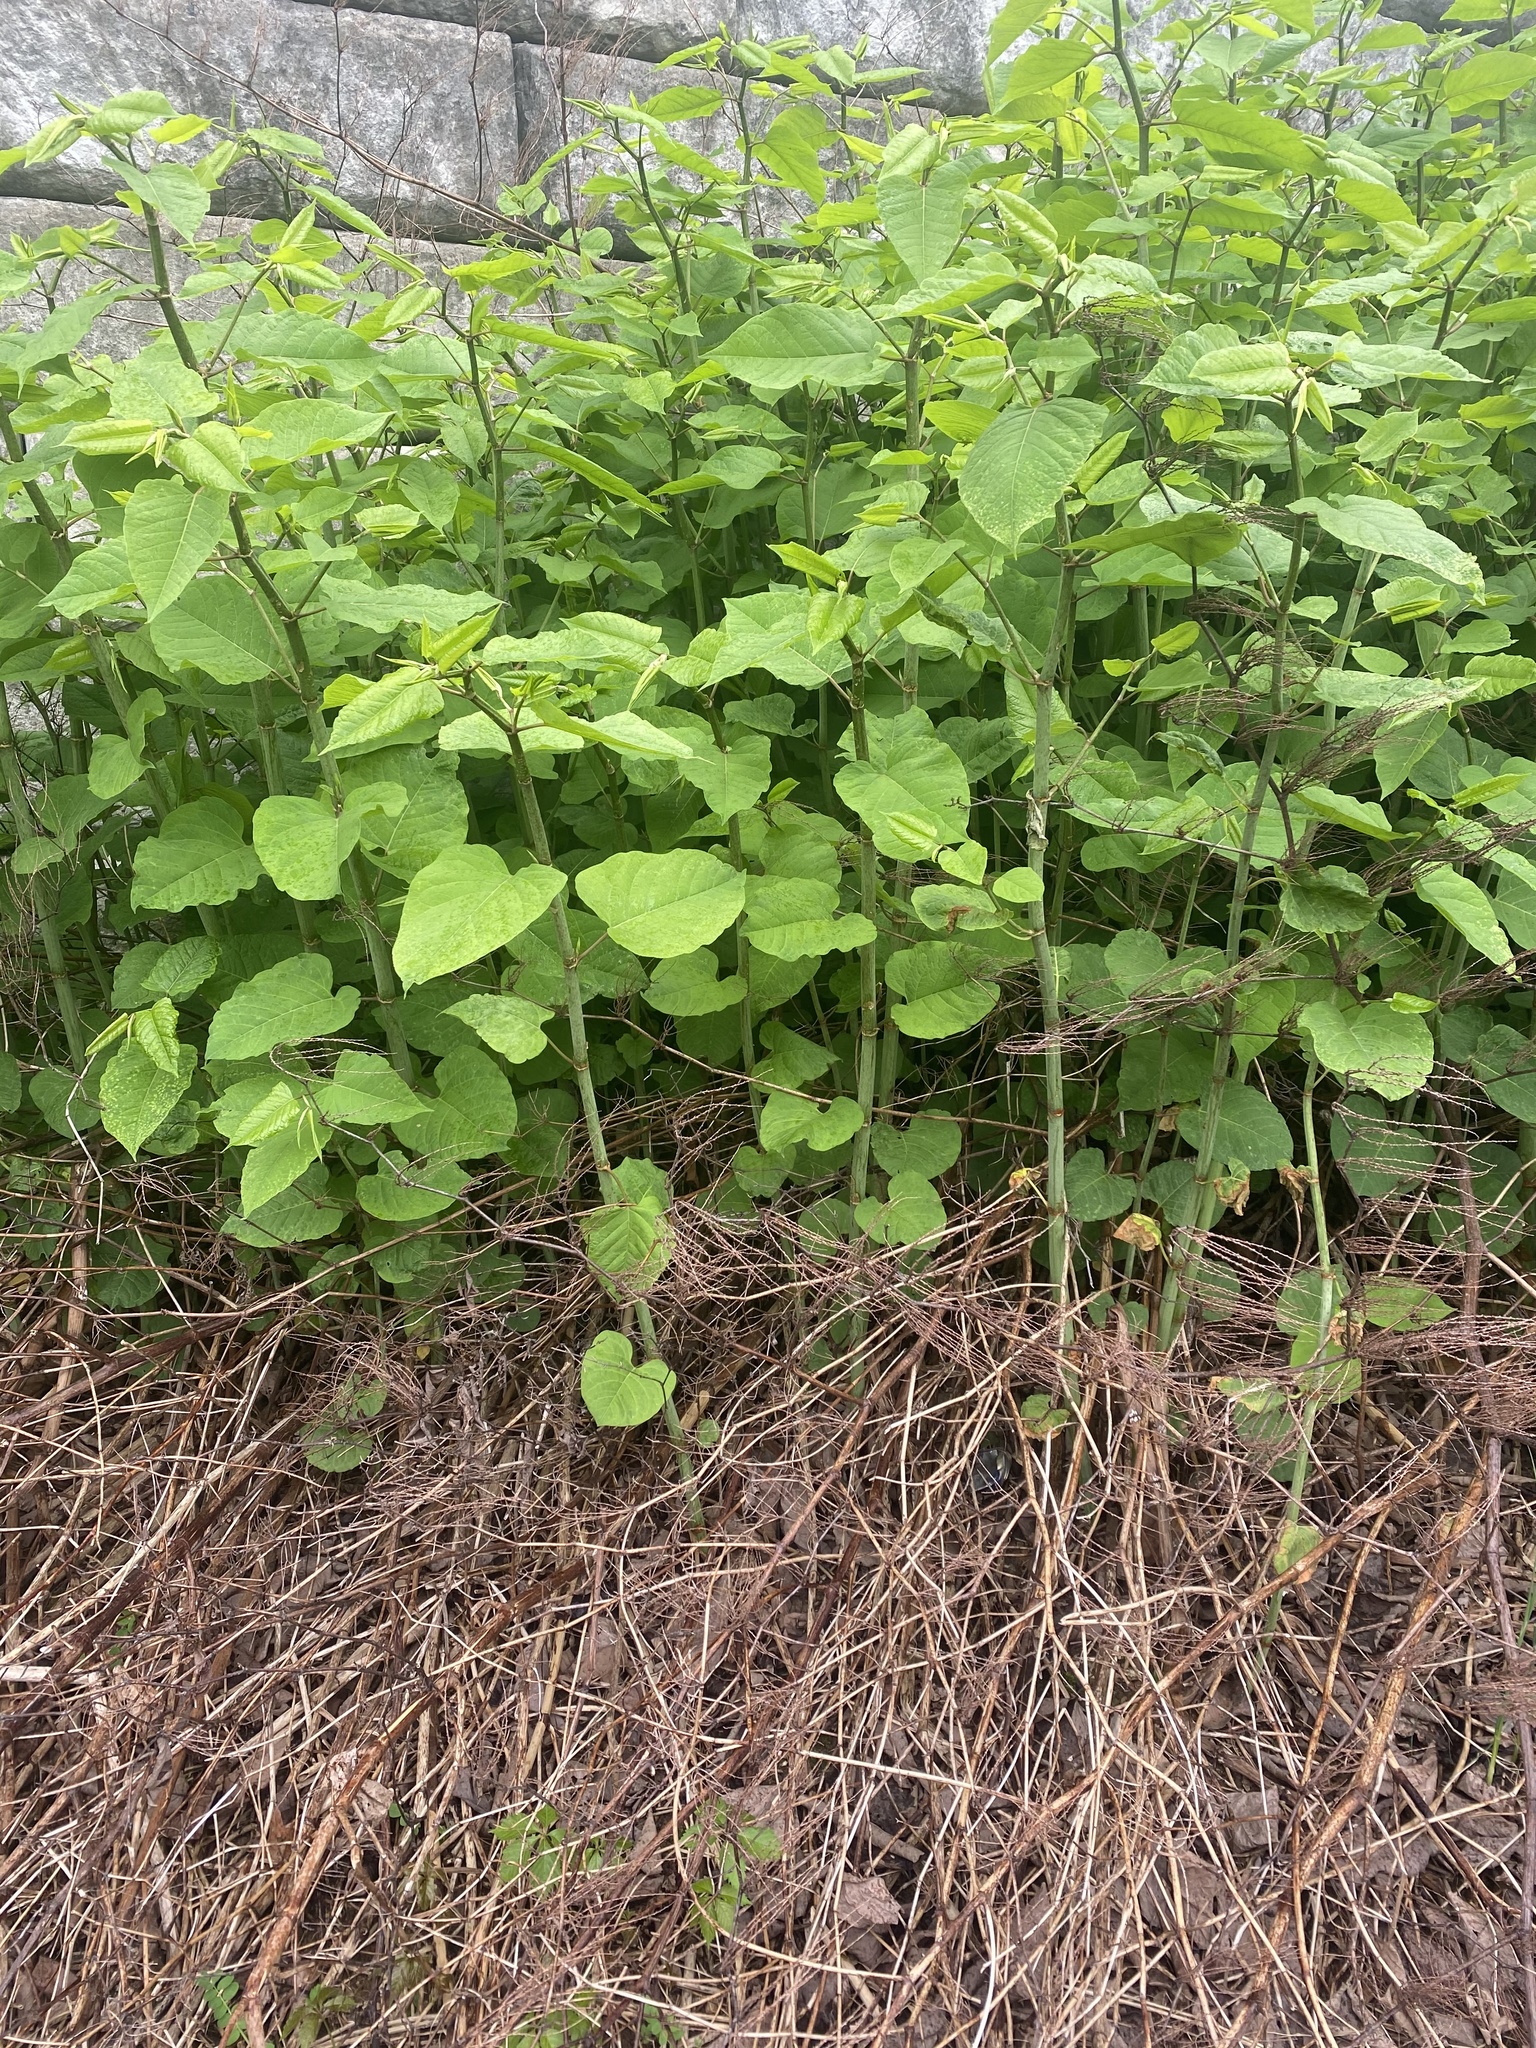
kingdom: Plantae
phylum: Tracheophyta
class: Magnoliopsida
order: Caryophyllales
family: Polygonaceae
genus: Reynoutria
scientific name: Reynoutria japonica
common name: Japanese knotweed
